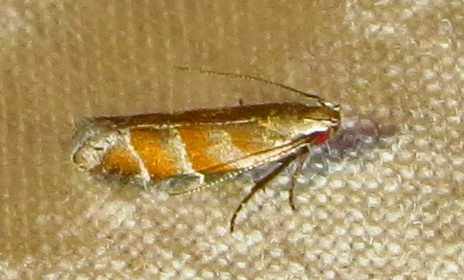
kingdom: Animalia
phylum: Arthropoda
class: Insecta
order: Lepidoptera
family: Gelechiidae
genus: Battaristis
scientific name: Battaristis vittella
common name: Orange stripe-backed moth
